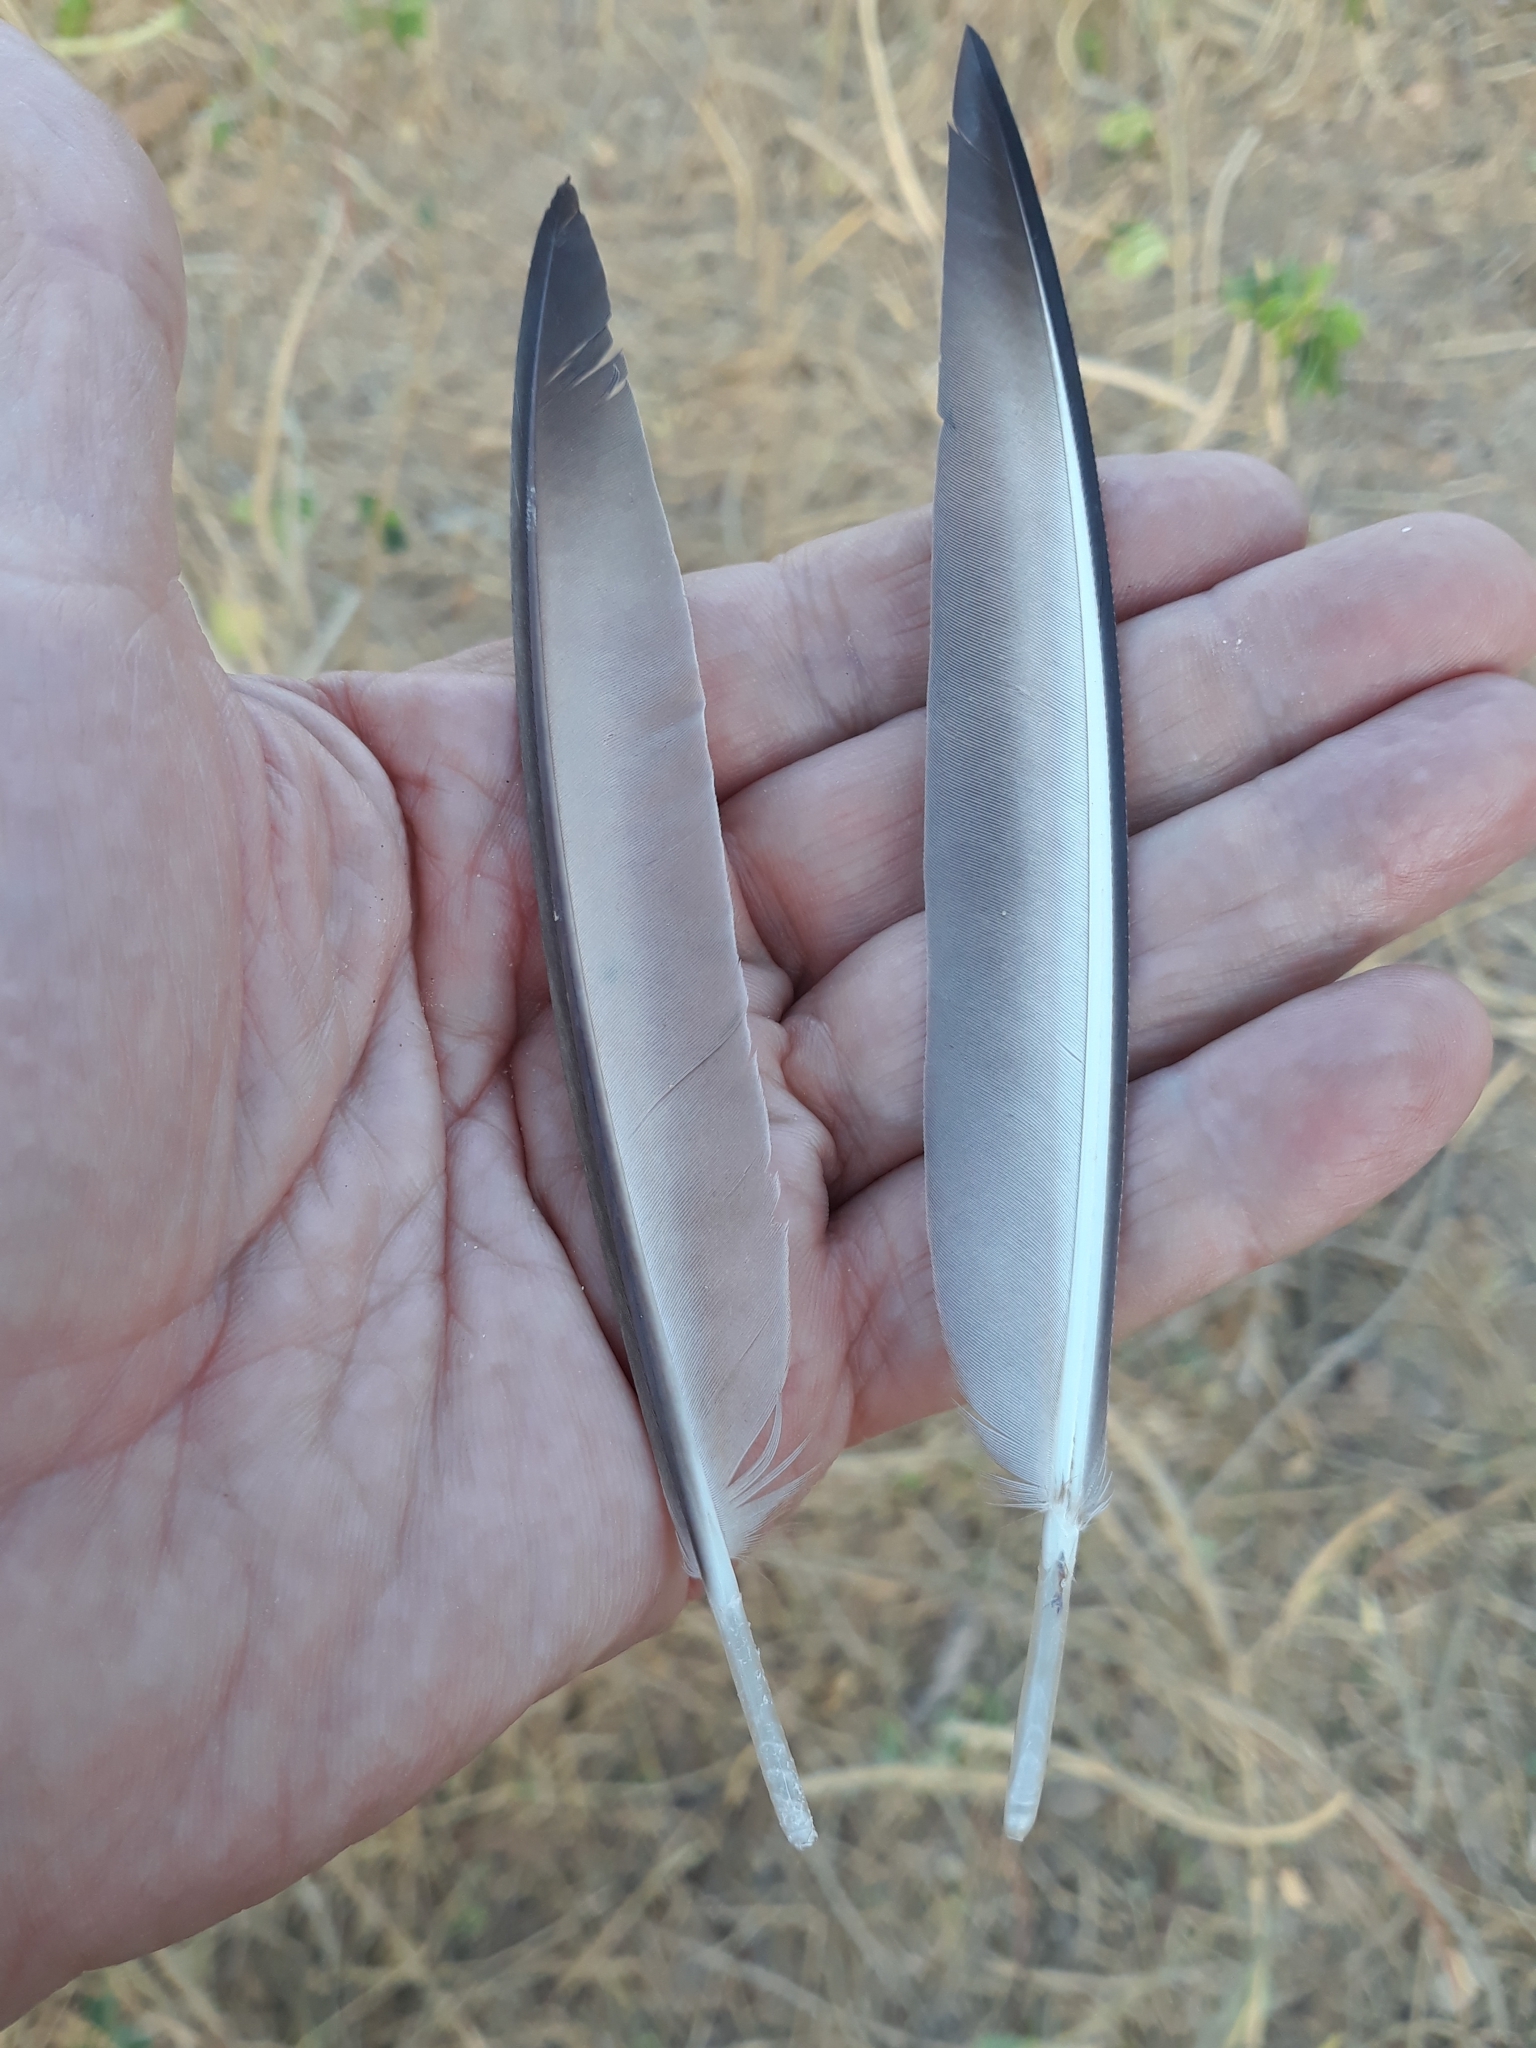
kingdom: Animalia
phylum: Chordata
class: Aves
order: Pteroclidiformes
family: Pteroclididae
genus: Pterocles
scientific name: Pterocles senegallus
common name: Spotted sandgrouse
